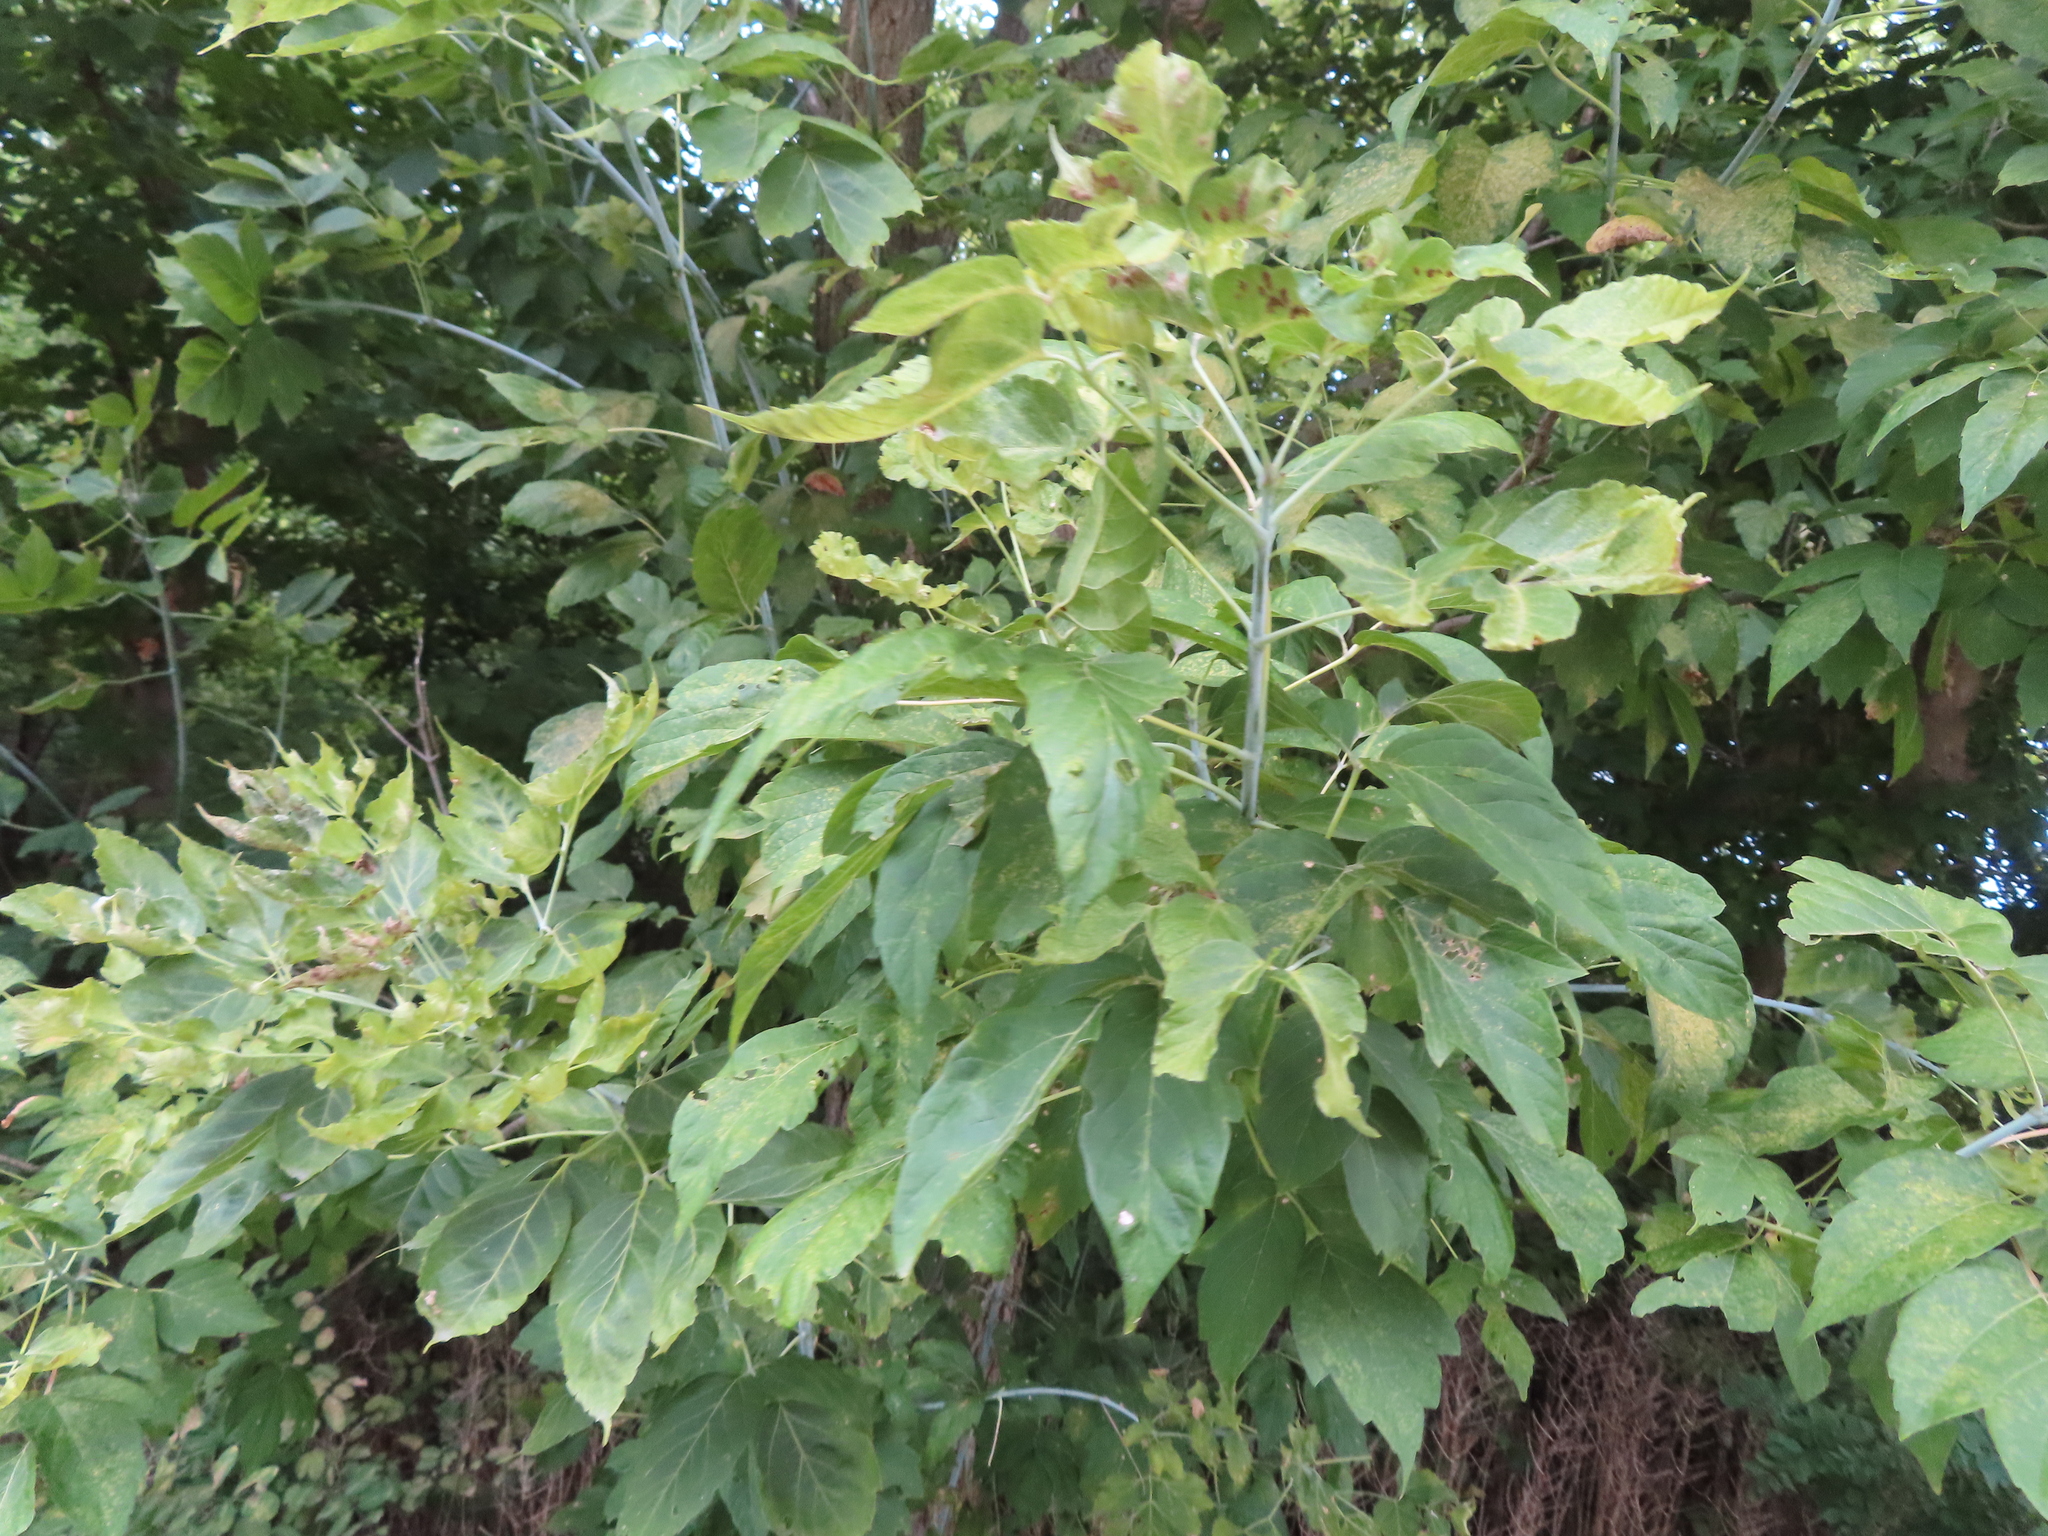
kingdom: Plantae
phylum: Tracheophyta
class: Magnoliopsida
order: Sapindales
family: Sapindaceae
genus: Acer
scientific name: Acer negundo
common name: Ashleaf maple
